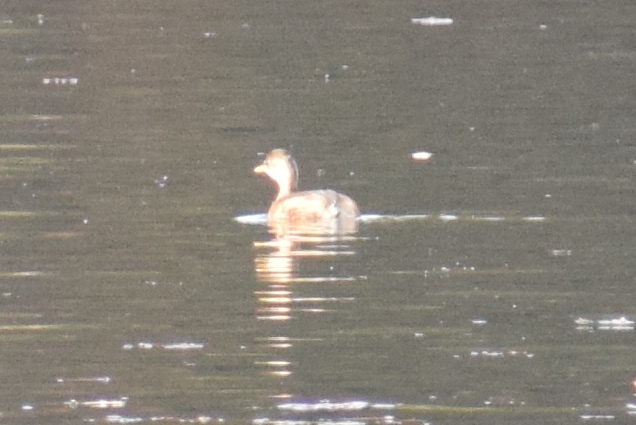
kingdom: Animalia
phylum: Chordata
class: Aves
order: Podicipediformes
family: Podicipedidae
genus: Tachybaptus
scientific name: Tachybaptus ruficollis
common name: Little grebe
